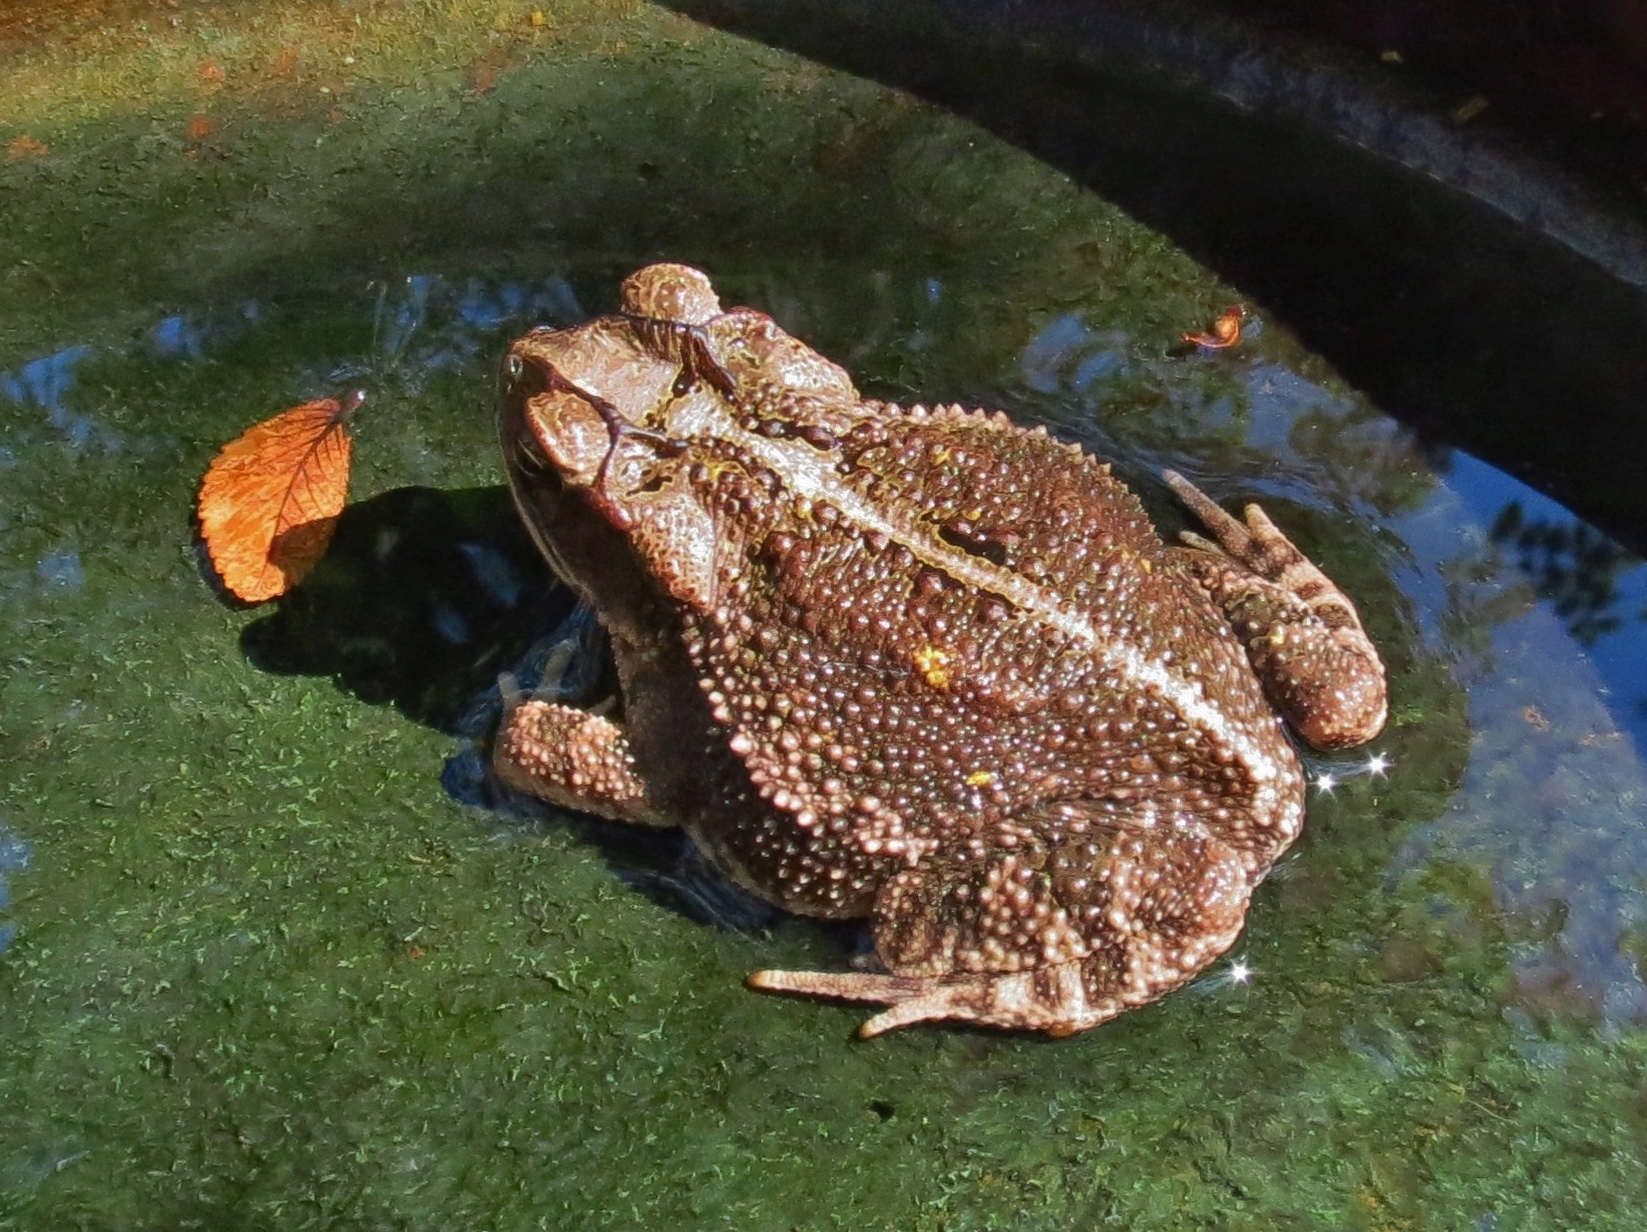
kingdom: Animalia
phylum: Chordata
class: Amphibia
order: Anura
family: Bufonidae
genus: Incilius
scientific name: Incilius nebulifer
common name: Gulf coast toad
